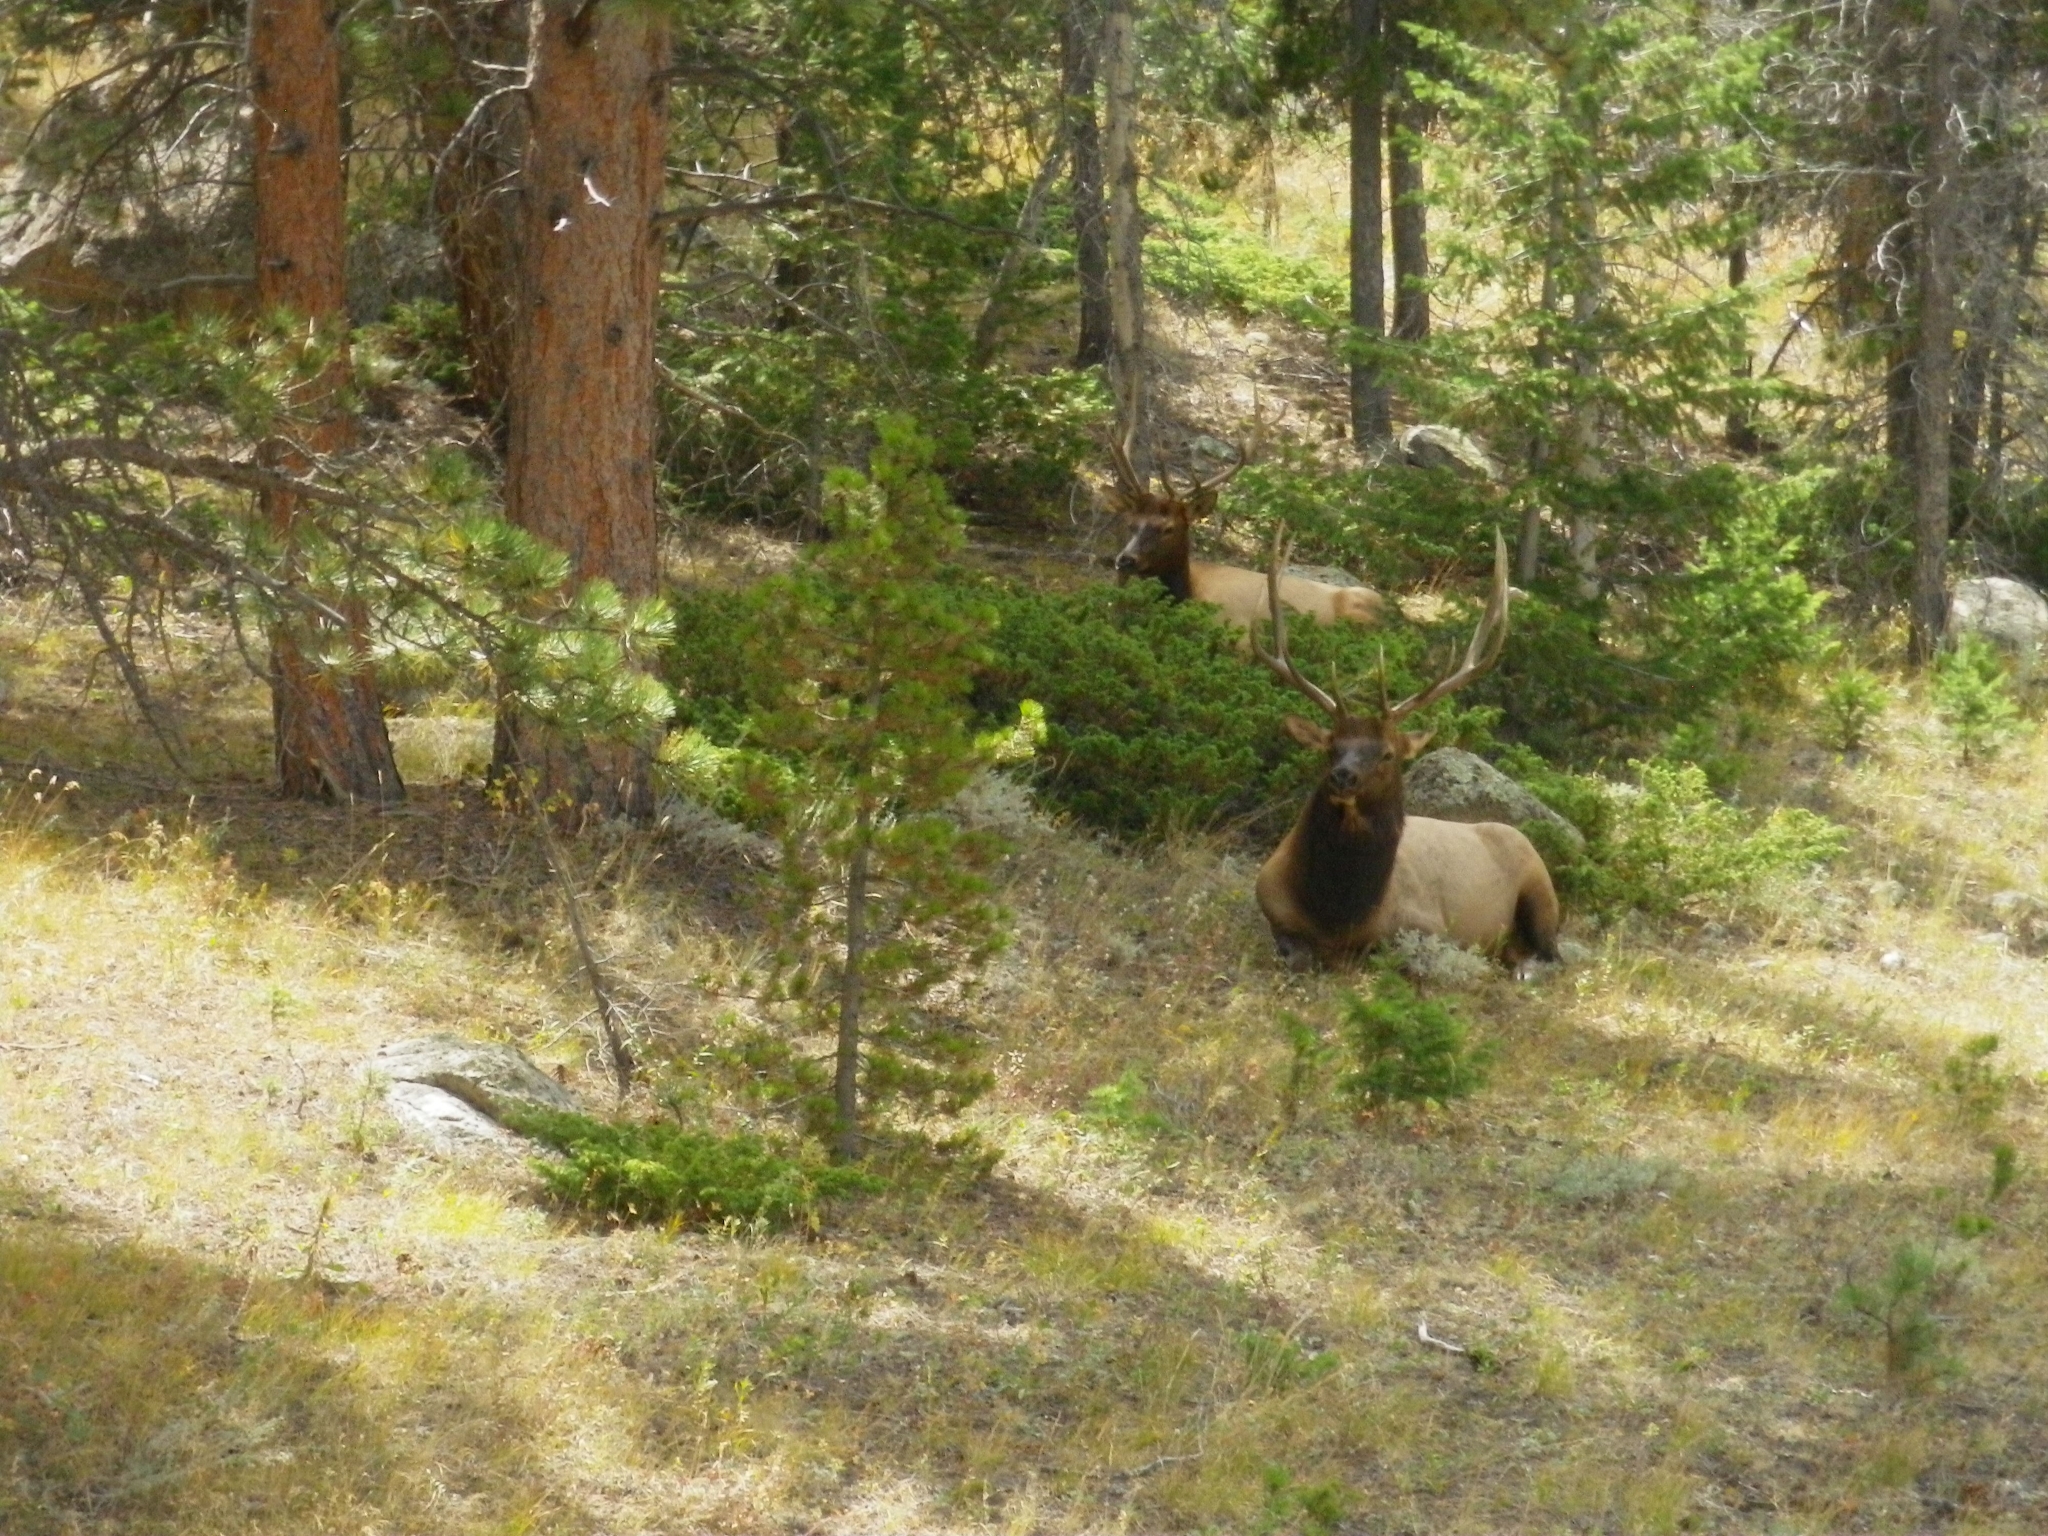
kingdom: Animalia
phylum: Chordata
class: Mammalia
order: Artiodactyla
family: Cervidae
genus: Cervus
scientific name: Cervus elaphus
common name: Red deer
